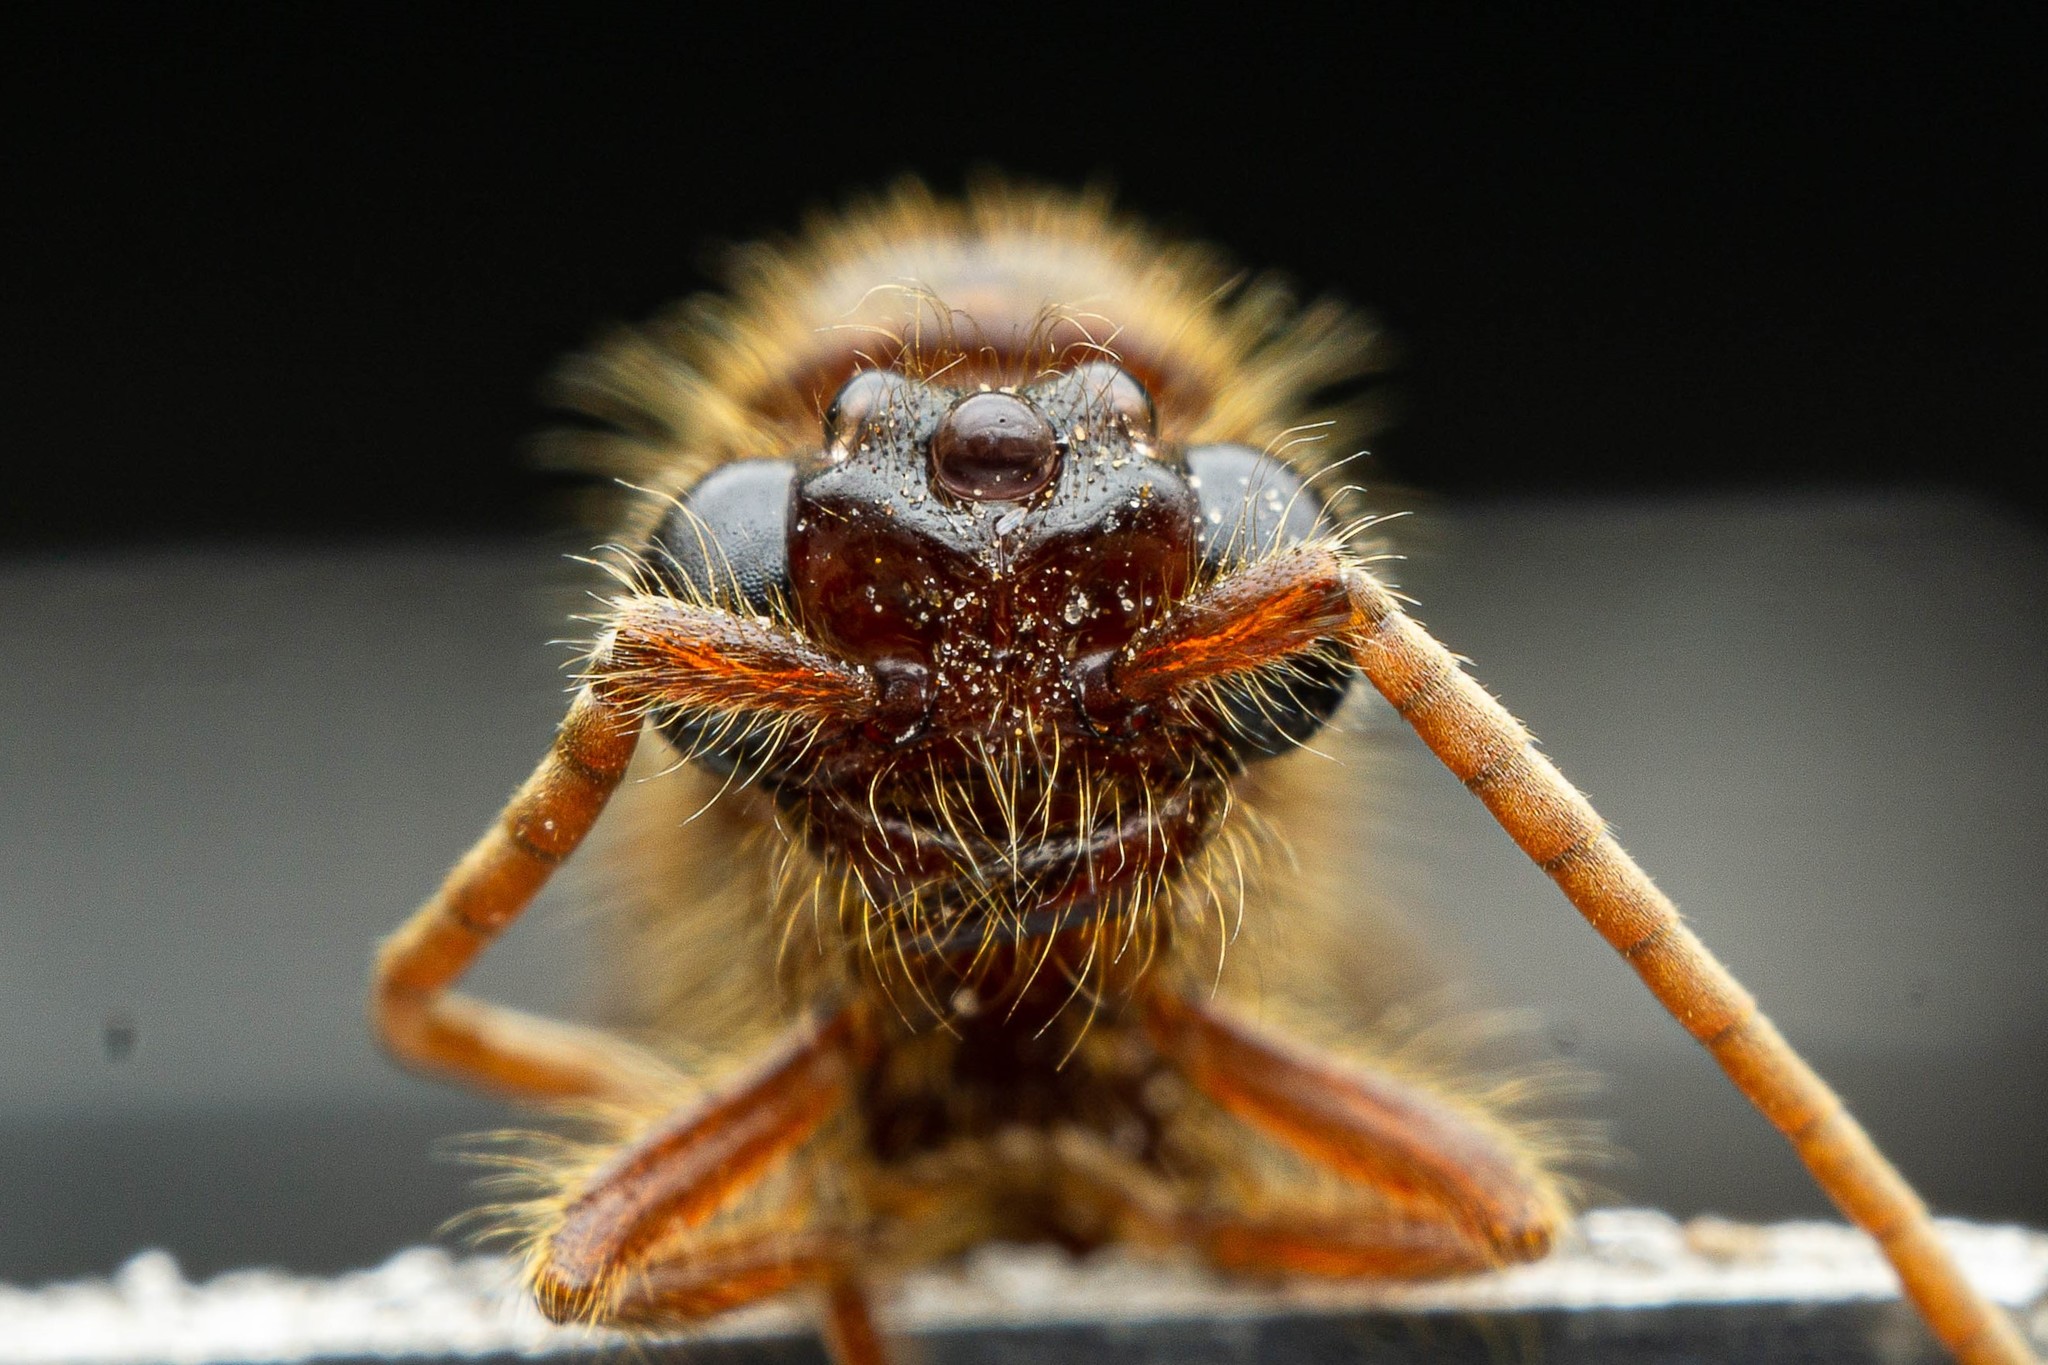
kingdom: Animalia
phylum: Arthropoda
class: Insecta
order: Hymenoptera
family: Formicidae
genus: Neivamyrmex
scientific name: Neivamyrmex harrisii
